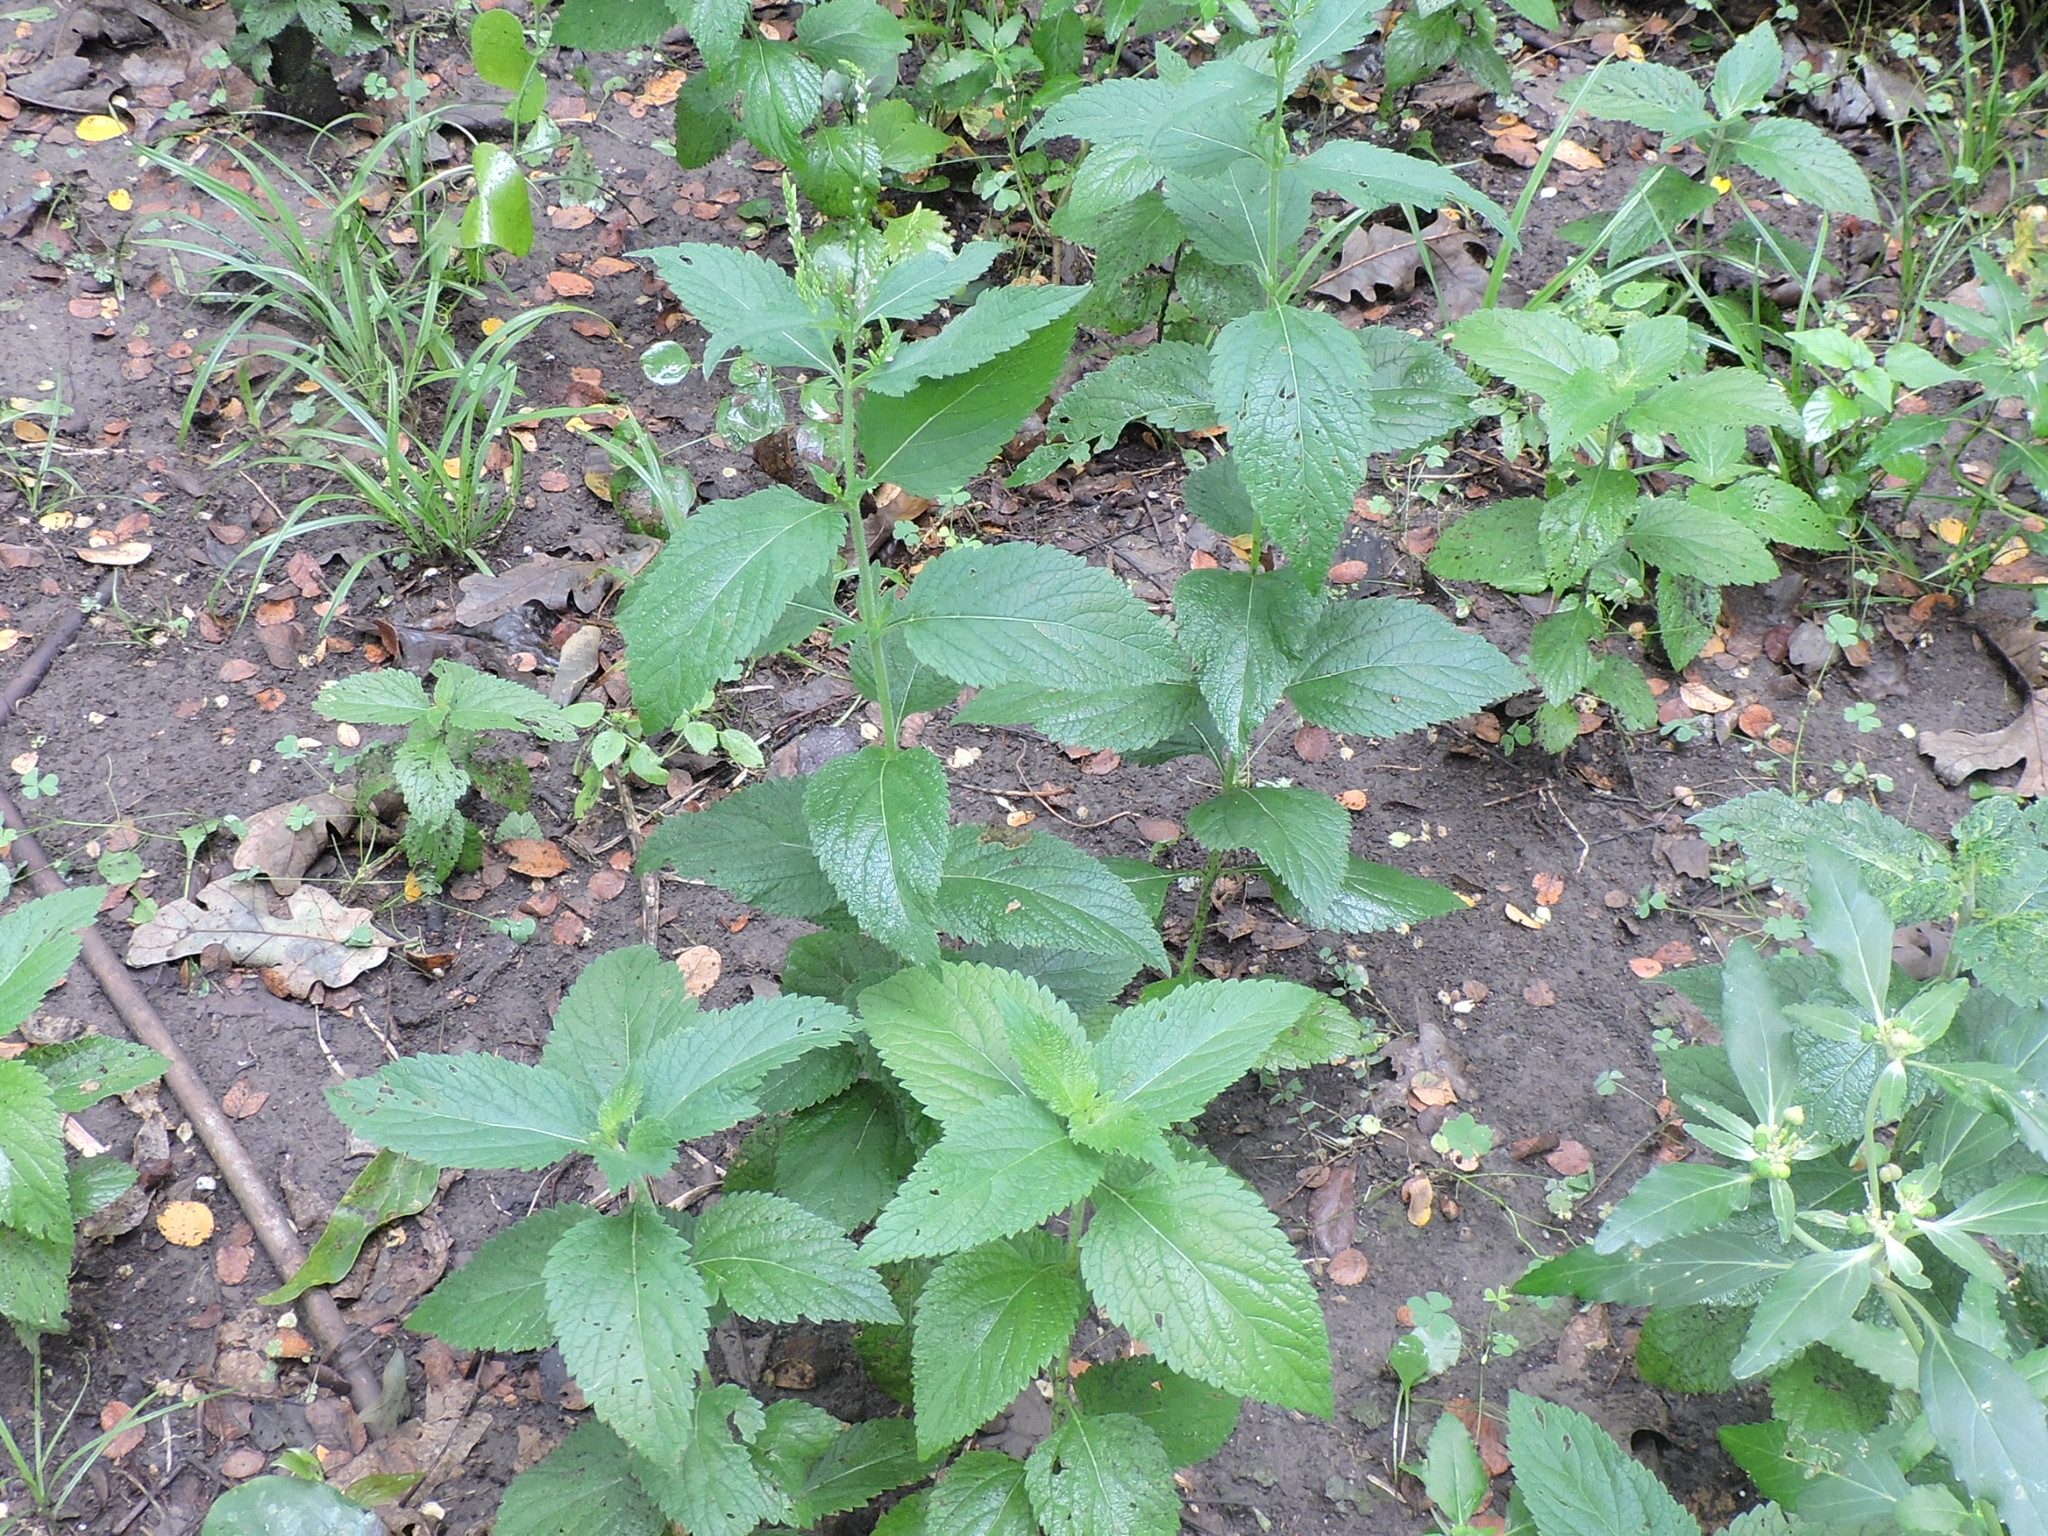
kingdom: Plantae
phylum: Tracheophyta
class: Magnoliopsida
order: Lamiales
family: Verbenaceae
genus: Verbena
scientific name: Verbena urticifolia
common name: Nettle-leaved vervain
